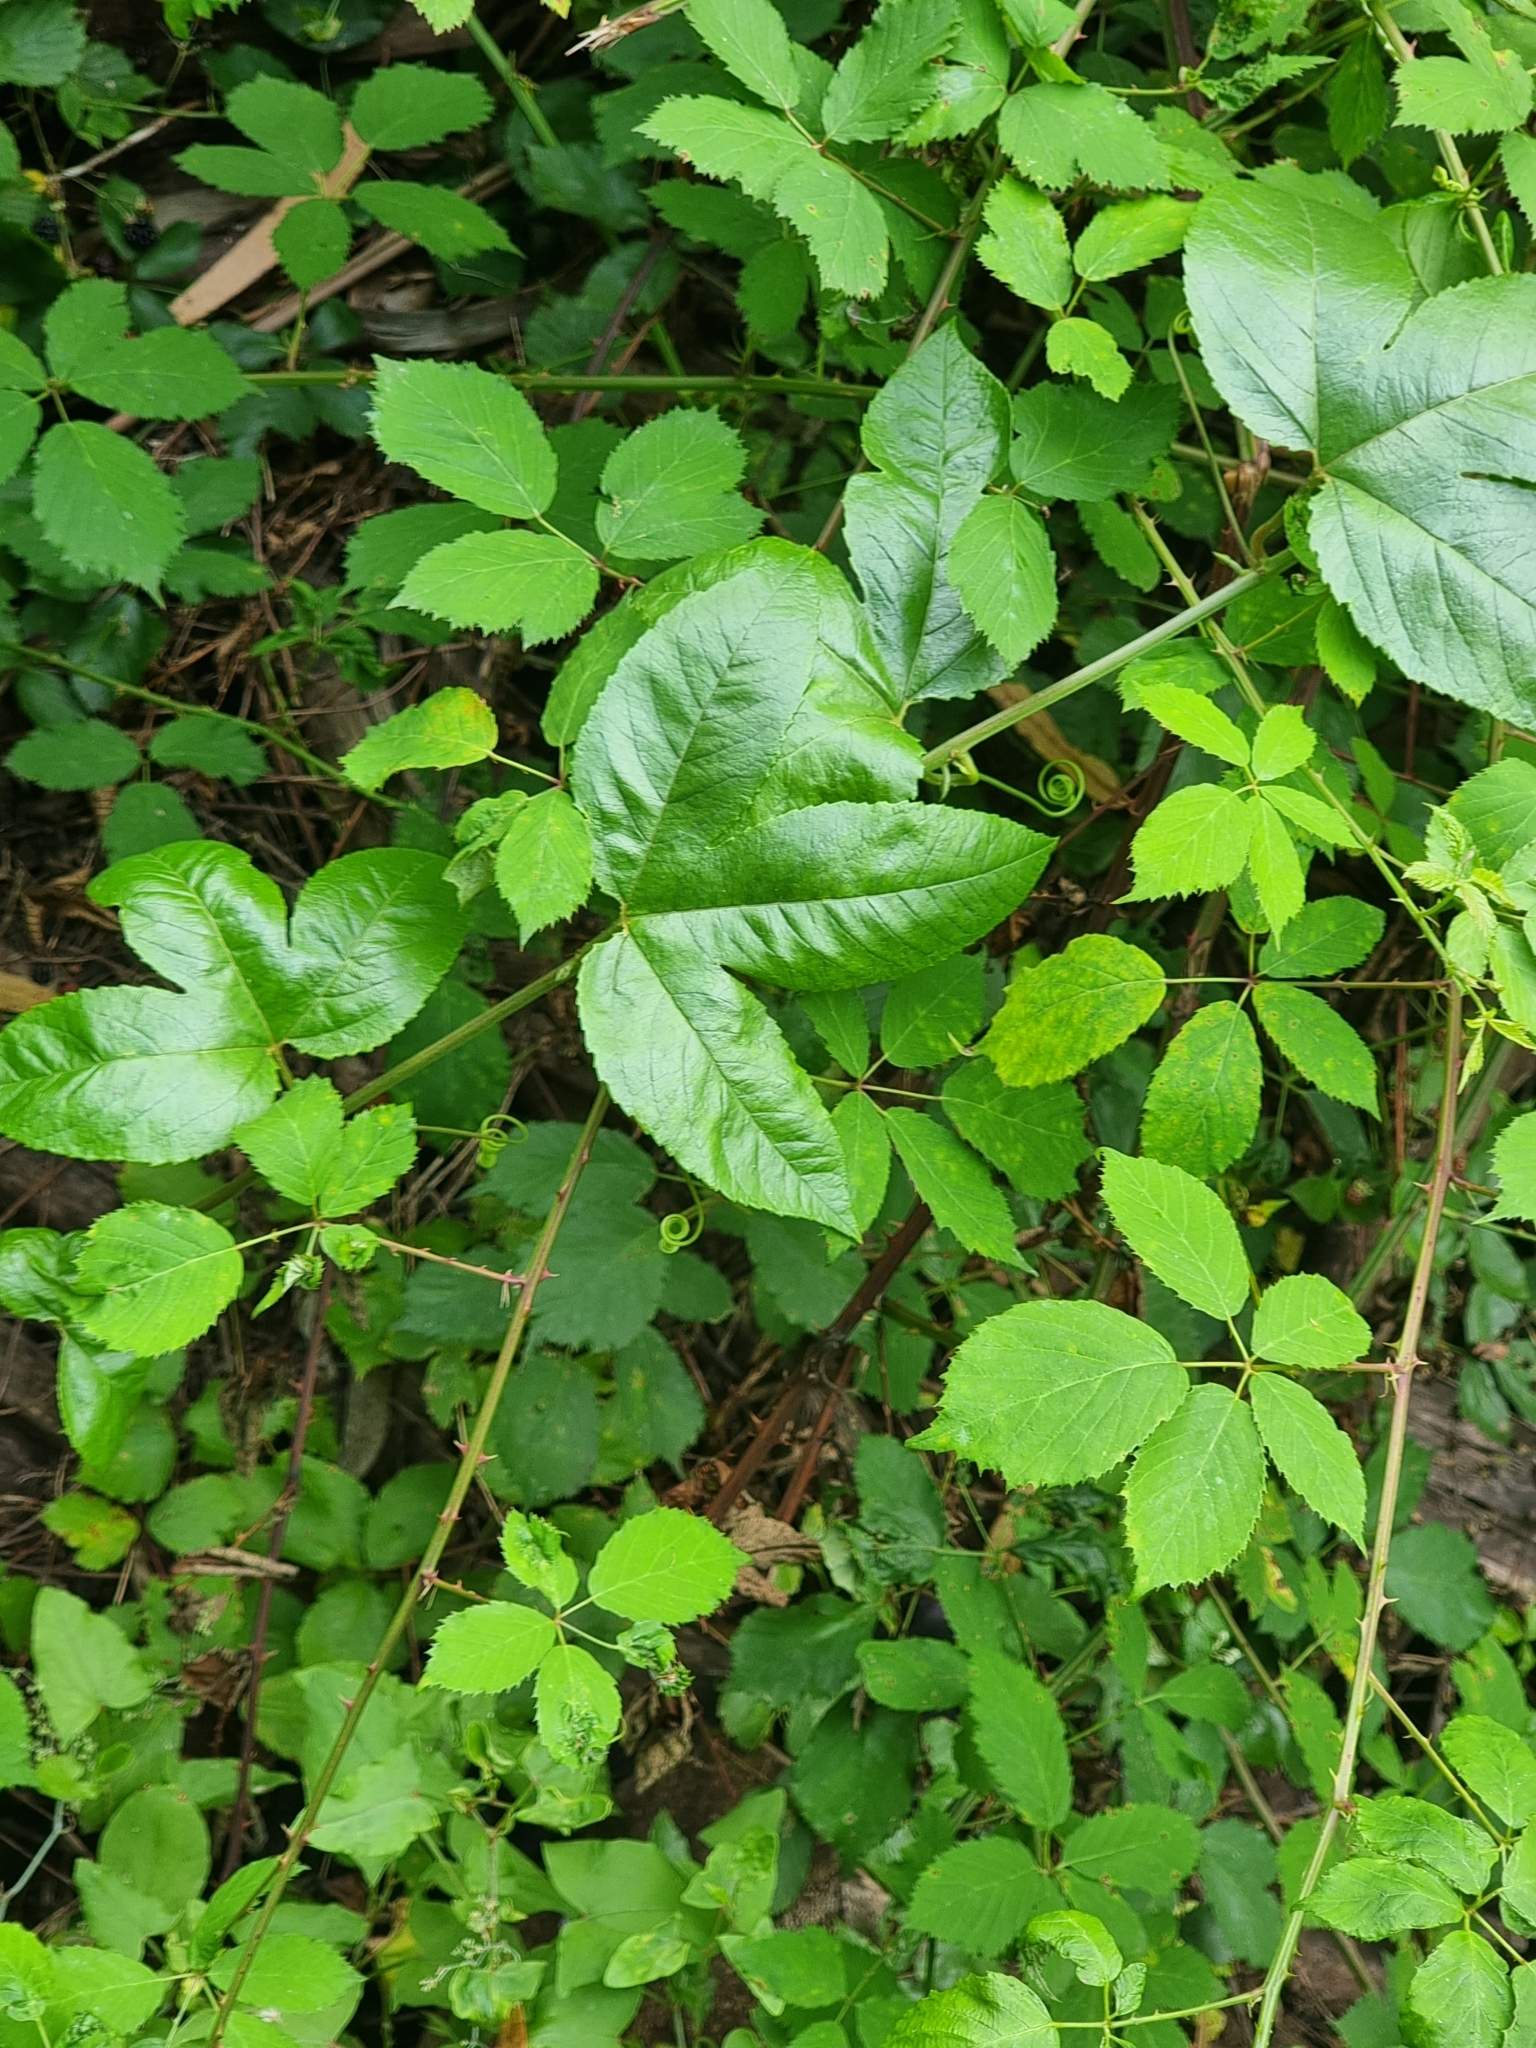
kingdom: Plantae
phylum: Tracheophyta
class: Magnoliopsida
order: Malpighiales
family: Passifloraceae
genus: Passiflora
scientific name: Passiflora tarminiana
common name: Banana poka
